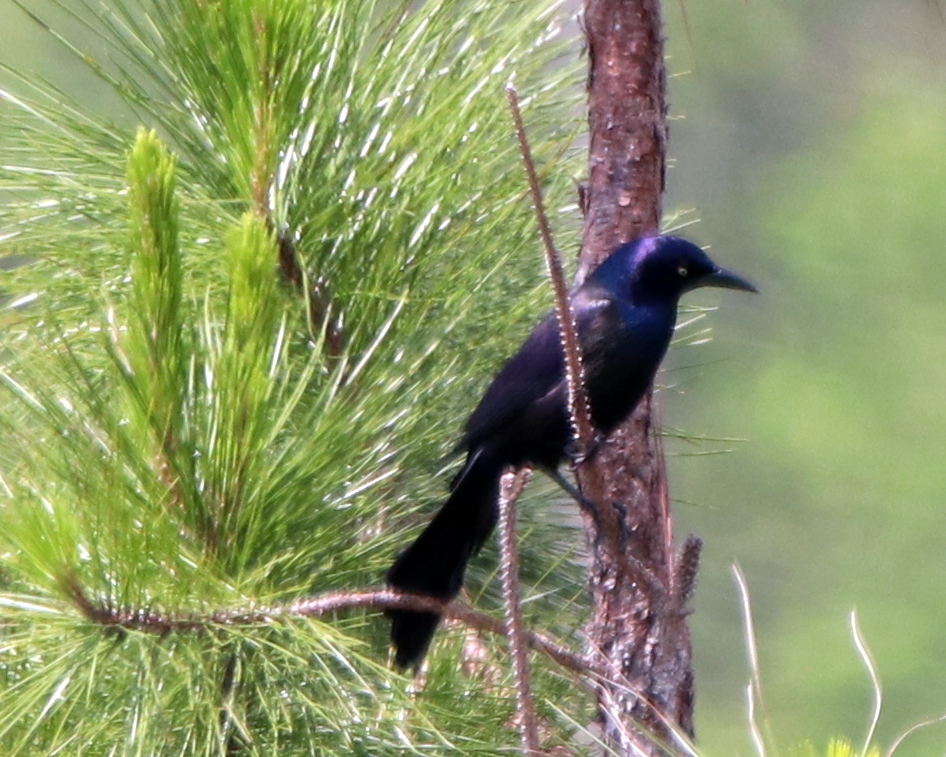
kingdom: Animalia
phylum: Chordata
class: Aves
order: Passeriformes
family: Icteridae
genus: Quiscalus
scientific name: Quiscalus quiscula
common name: Common grackle
